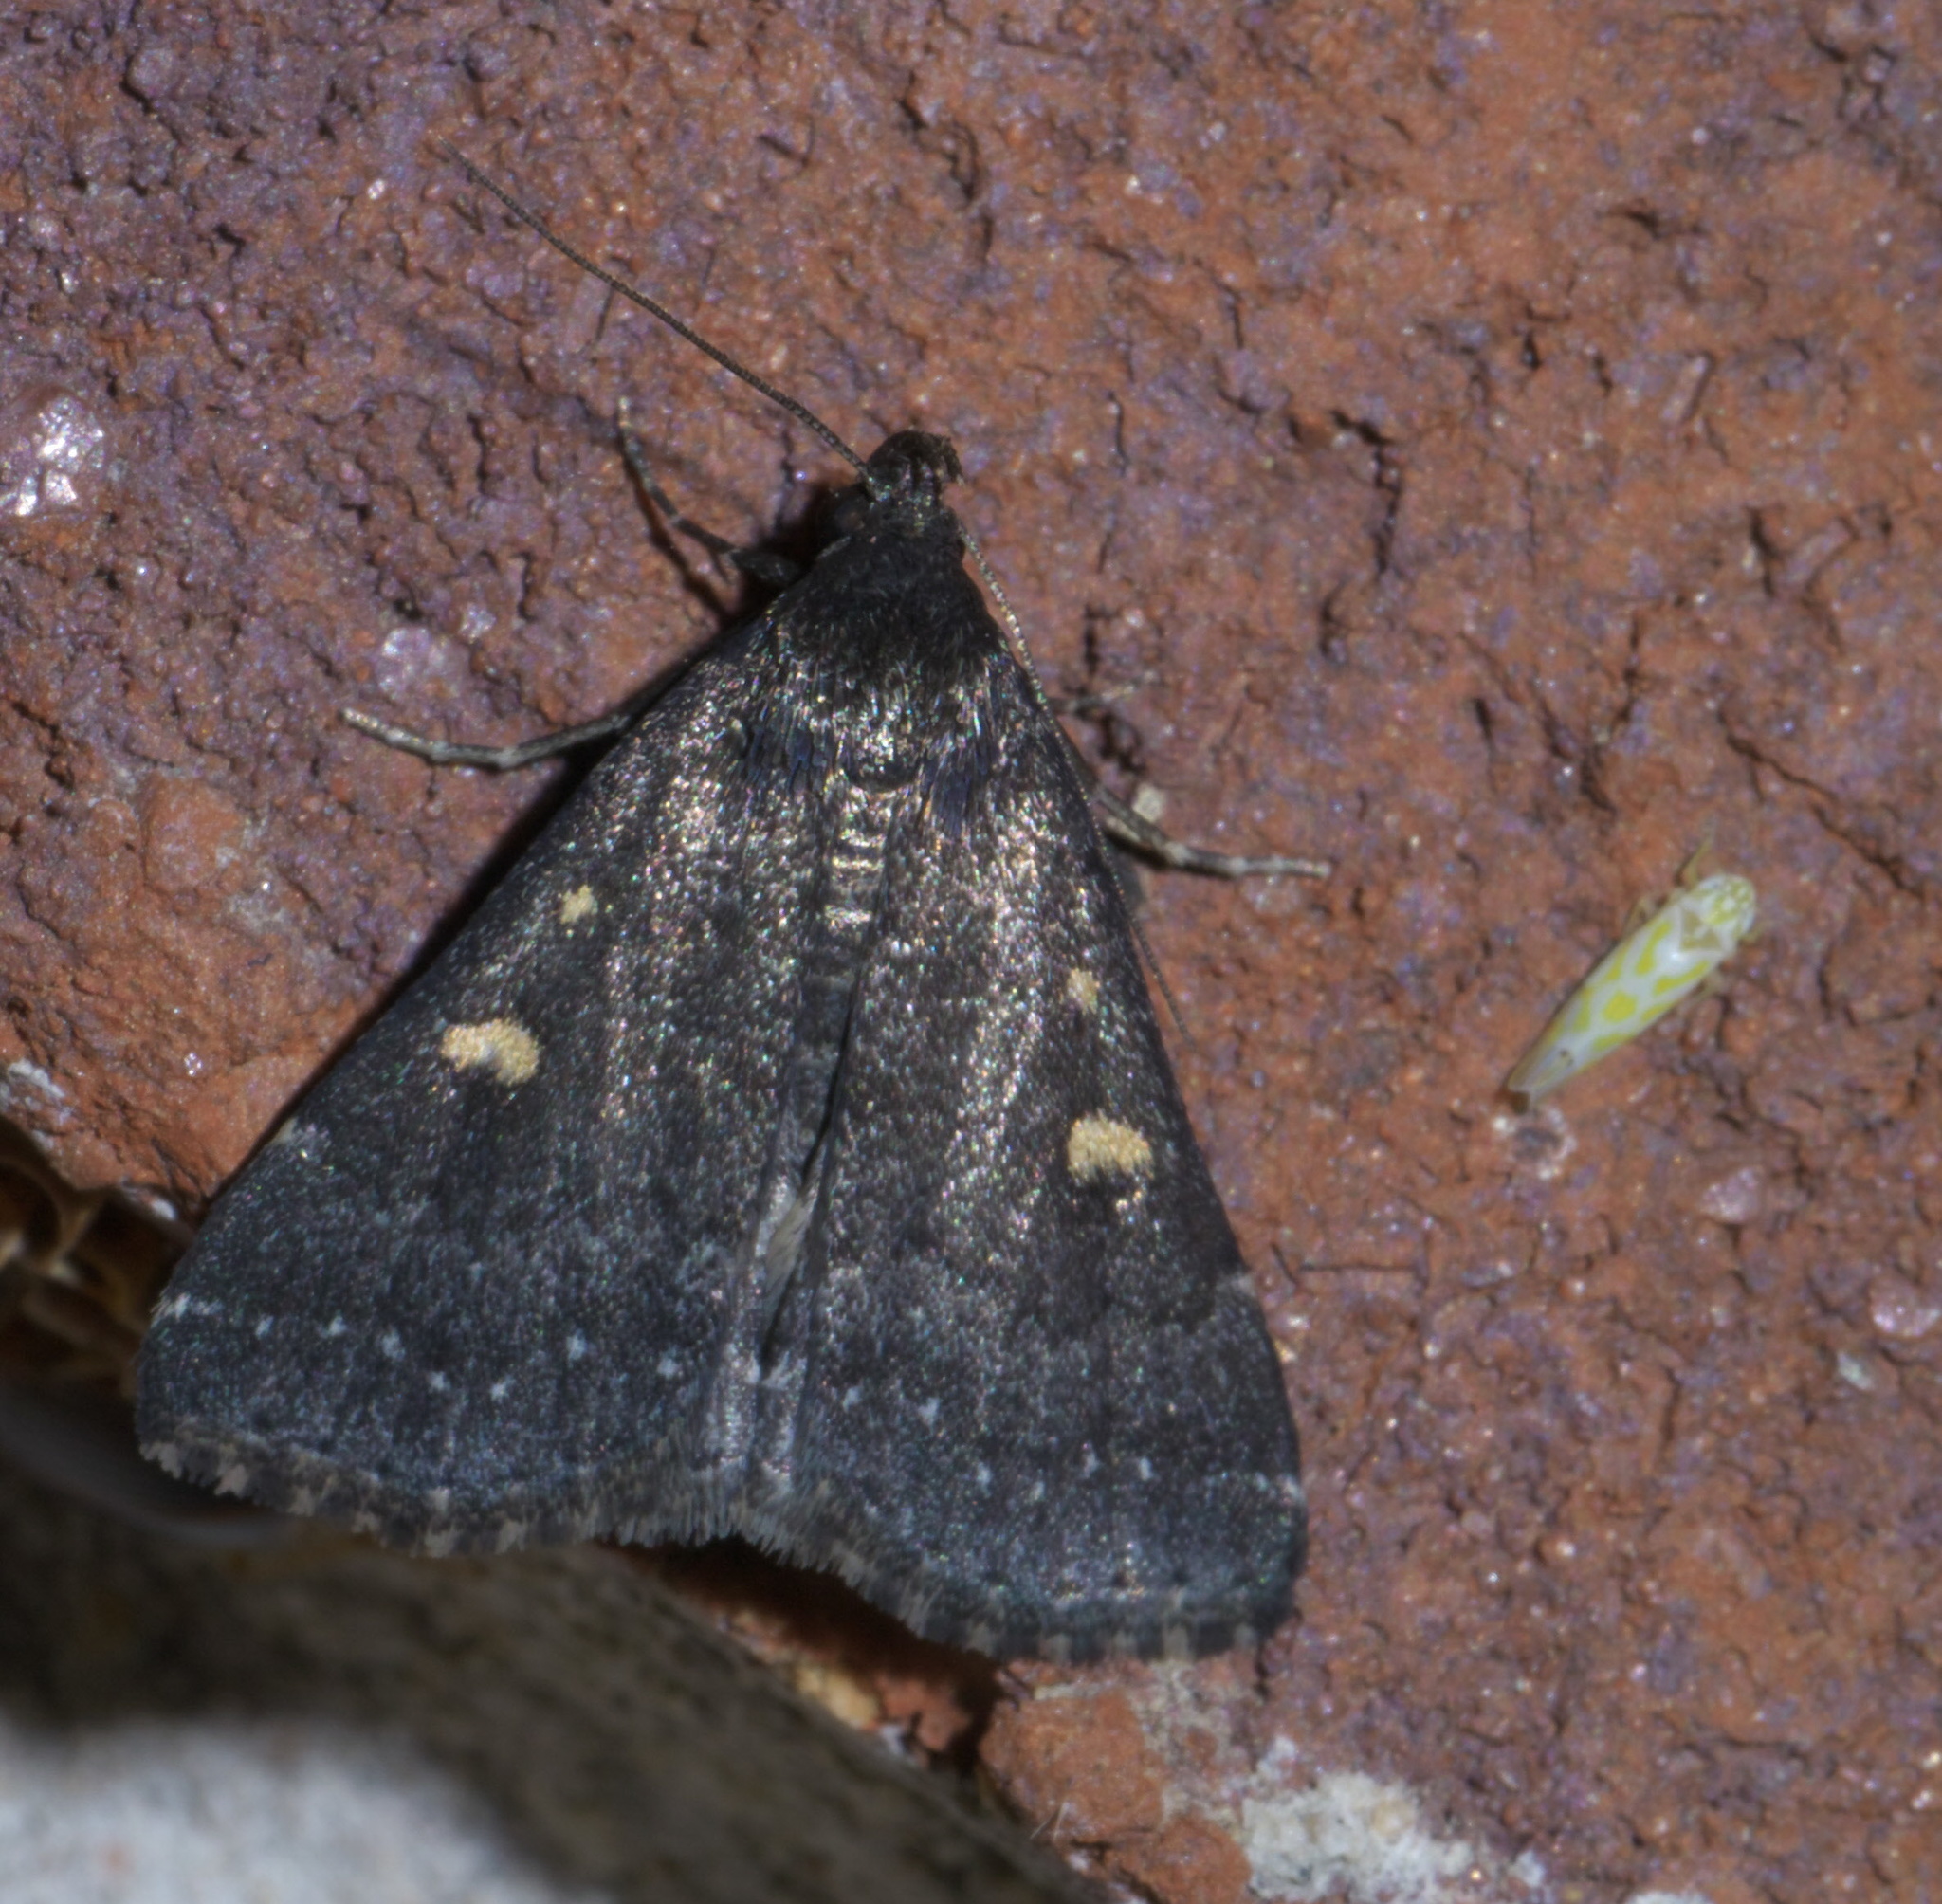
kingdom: Animalia
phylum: Arthropoda
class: Insecta
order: Lepidoptera
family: Erebidae
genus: Tetanolita
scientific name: Tetanolita mynesalis
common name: Smoky tetanolita moth
